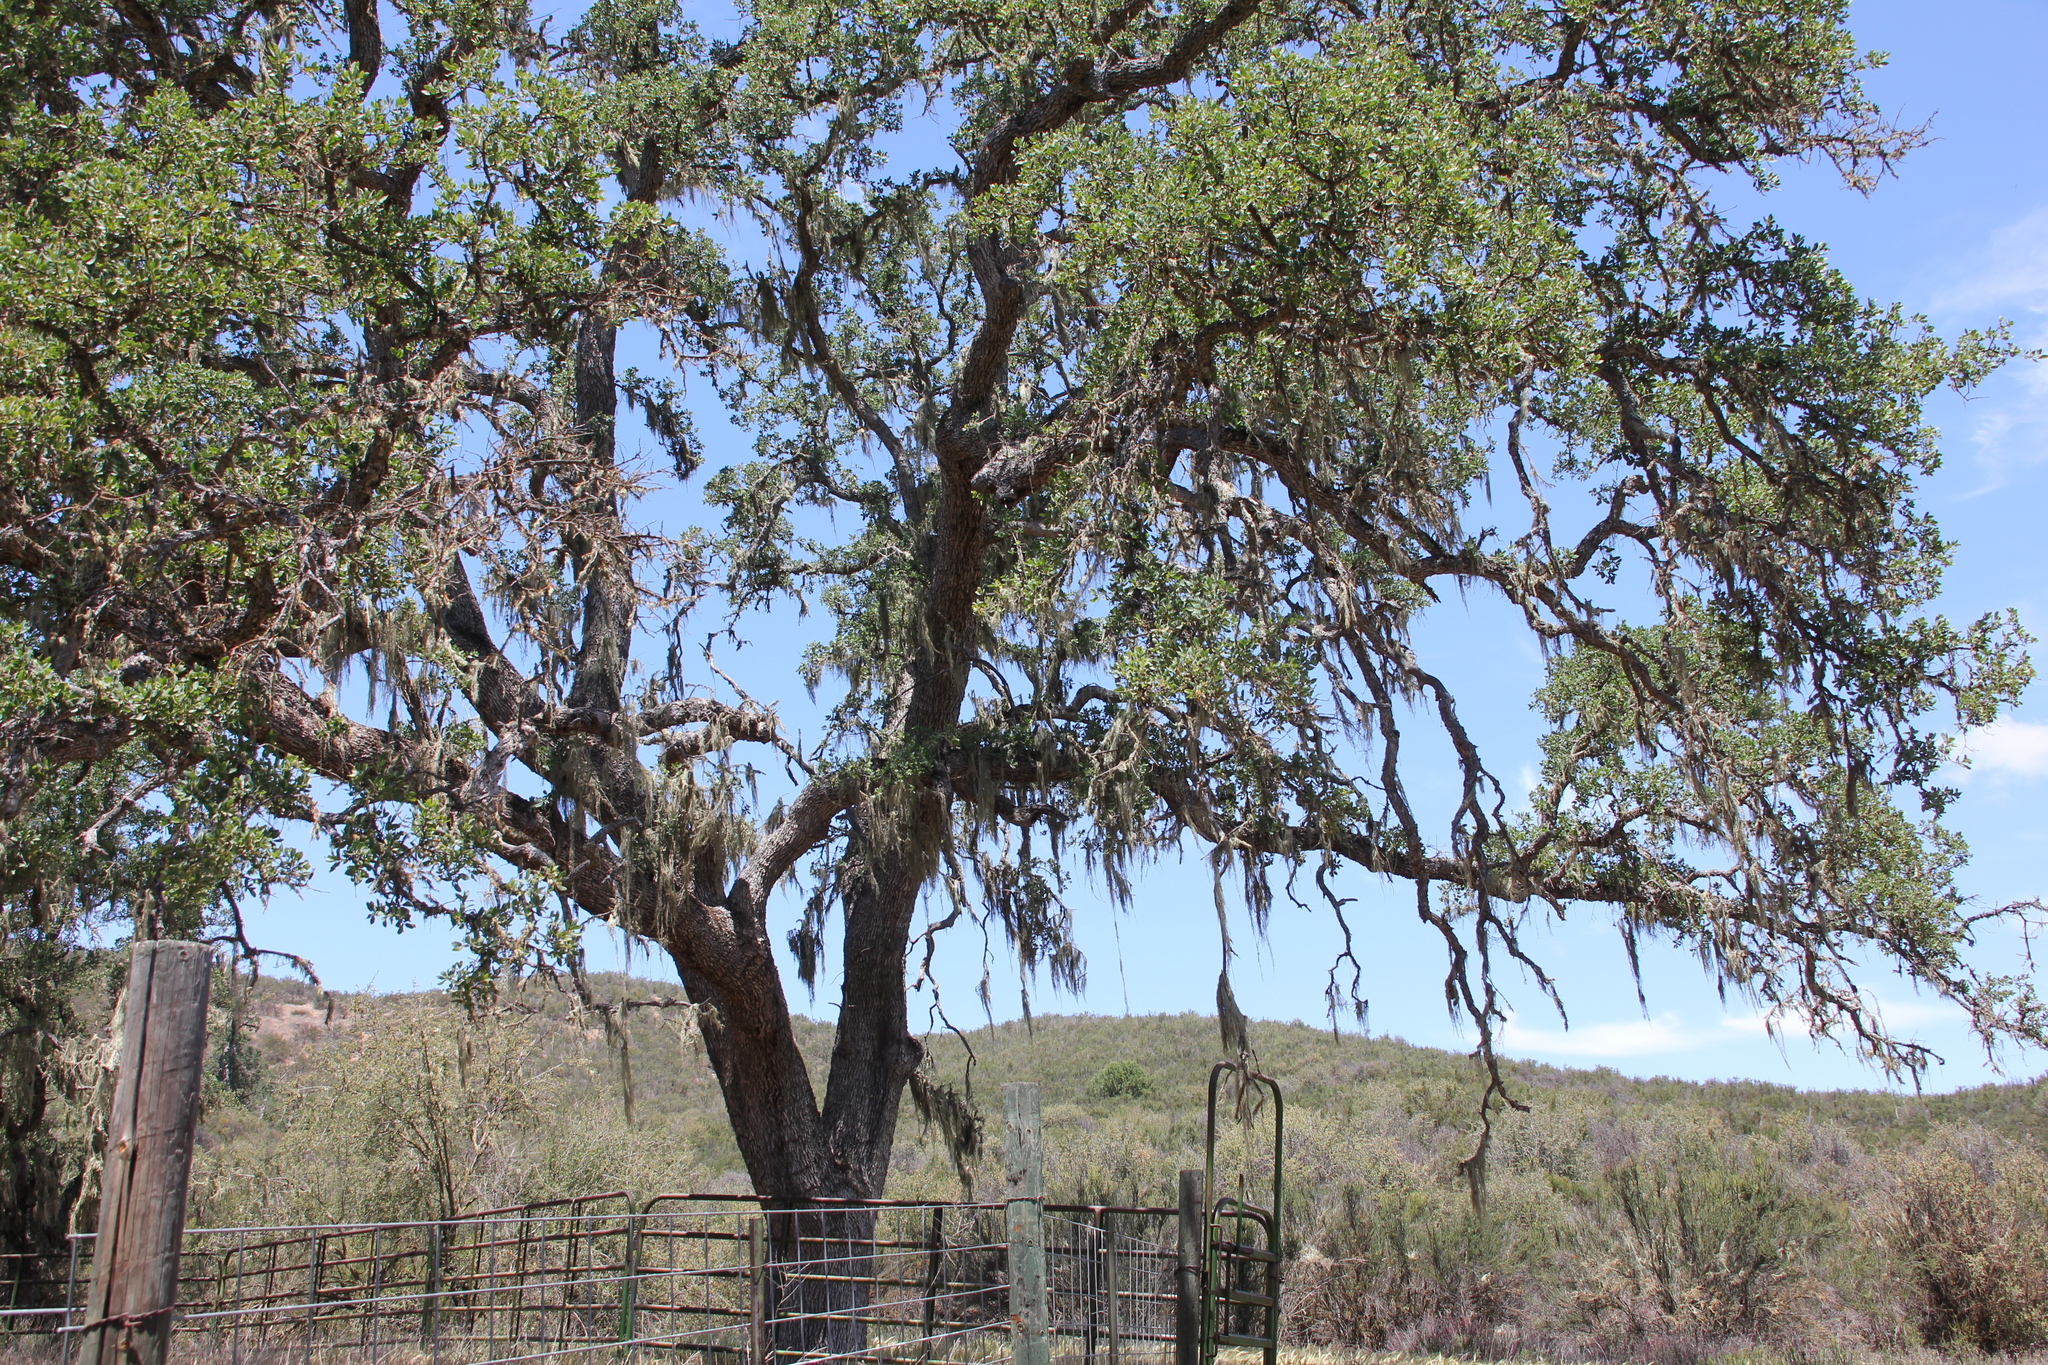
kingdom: Fungi
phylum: Ascomycota
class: Lecanoromycetes
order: Lecanorales
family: Ramalinaceae
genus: Ramalina
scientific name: Ramalina menziesii
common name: Lace lichen
